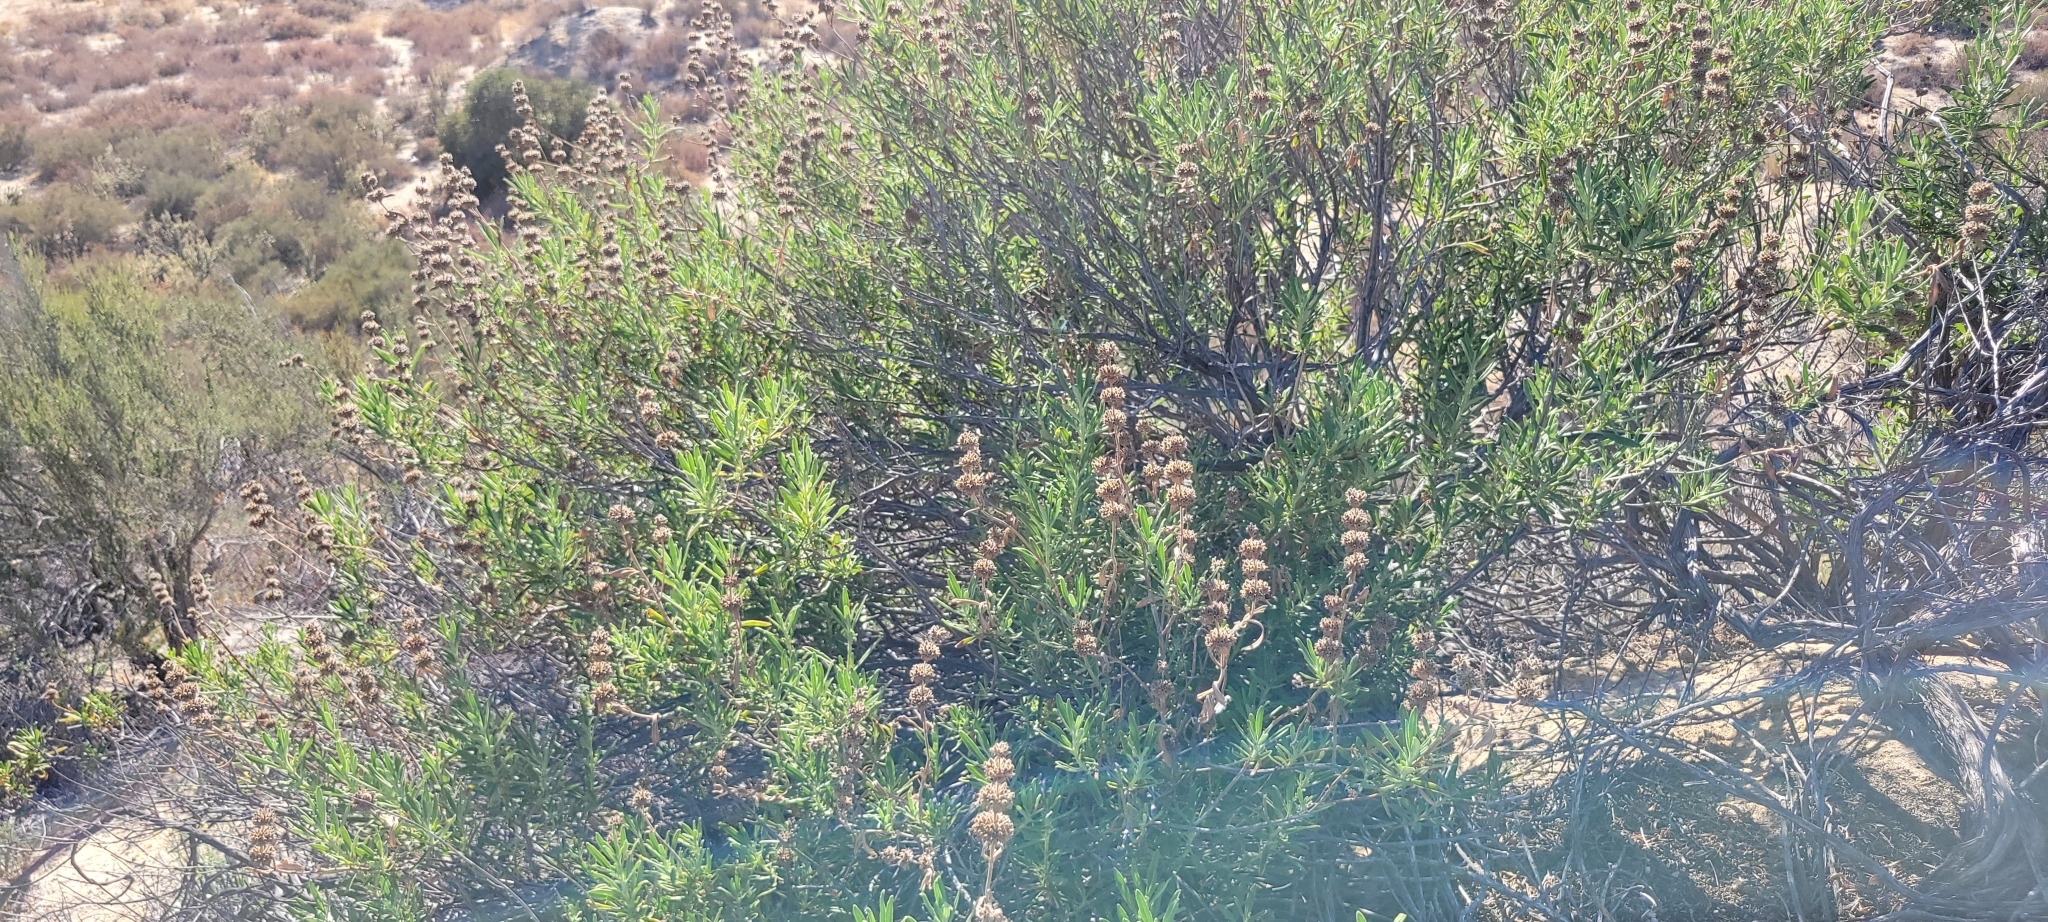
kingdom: Plantae
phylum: Tracheophyta
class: Magnoliopsida
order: Lamiales
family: Lamiaceae
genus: Salvia
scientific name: Salvia mellifera
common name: Black sage
